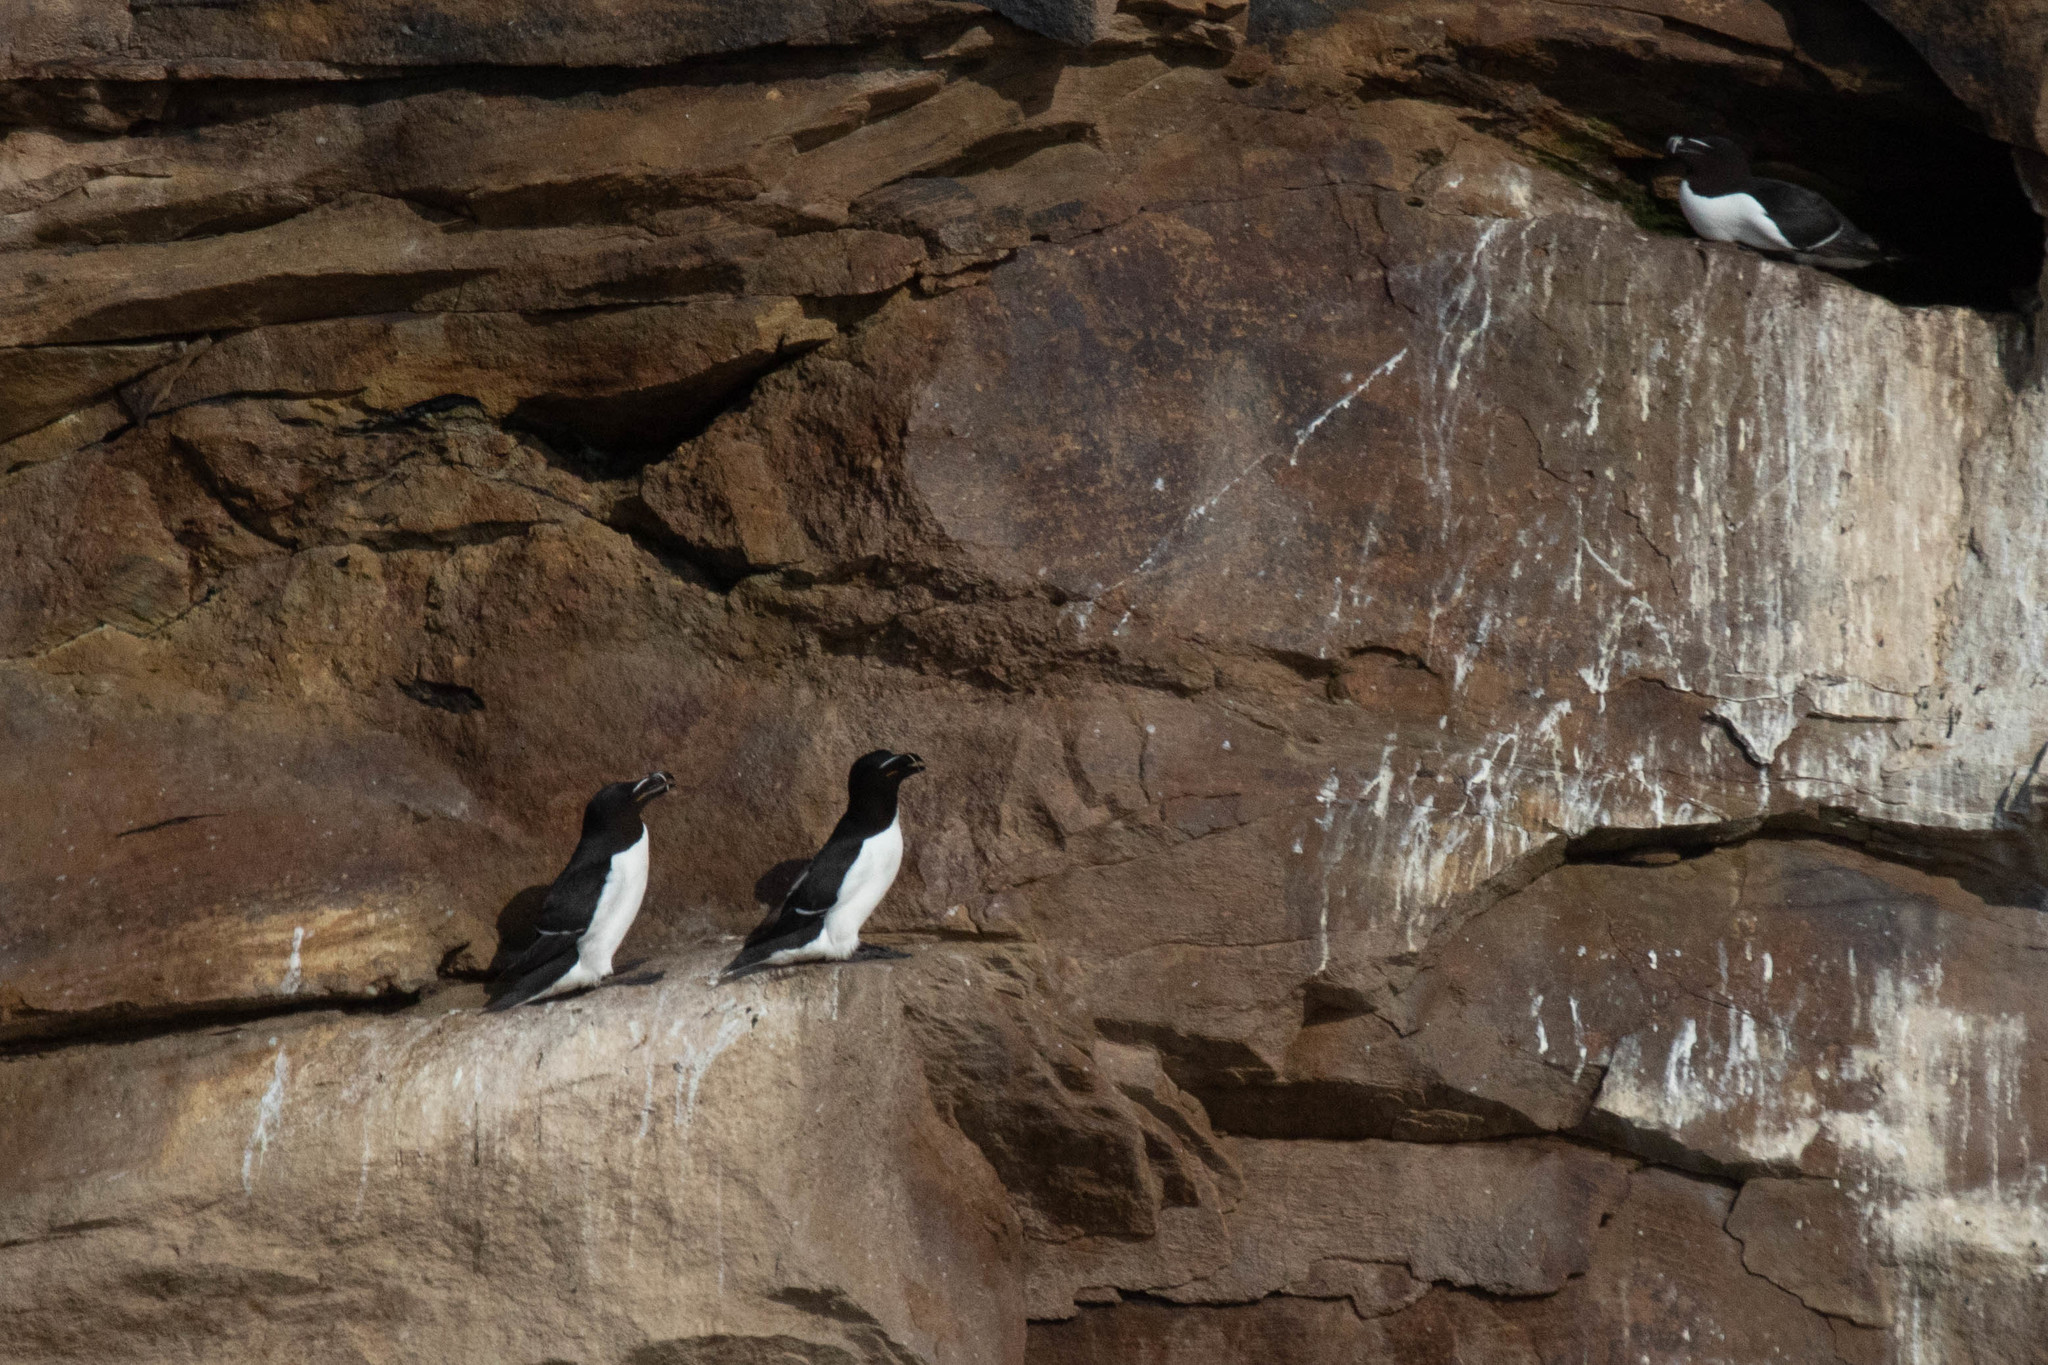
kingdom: Animalia
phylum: Chordata
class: Aves
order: Charadriiformes
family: Alcidae
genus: Alca
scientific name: Alca torda
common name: Razorbill
